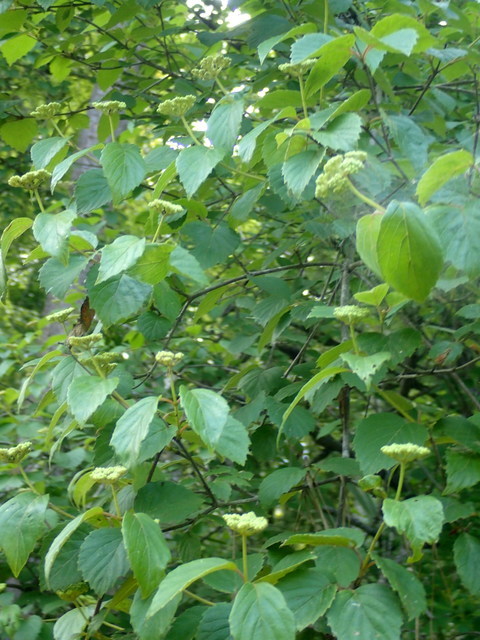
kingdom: Plantae
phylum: Tracheophyta
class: Magnoliopsida
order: Dipsacales
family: Viburnaceae
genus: Viburnum
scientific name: Viburnum scabrellum
